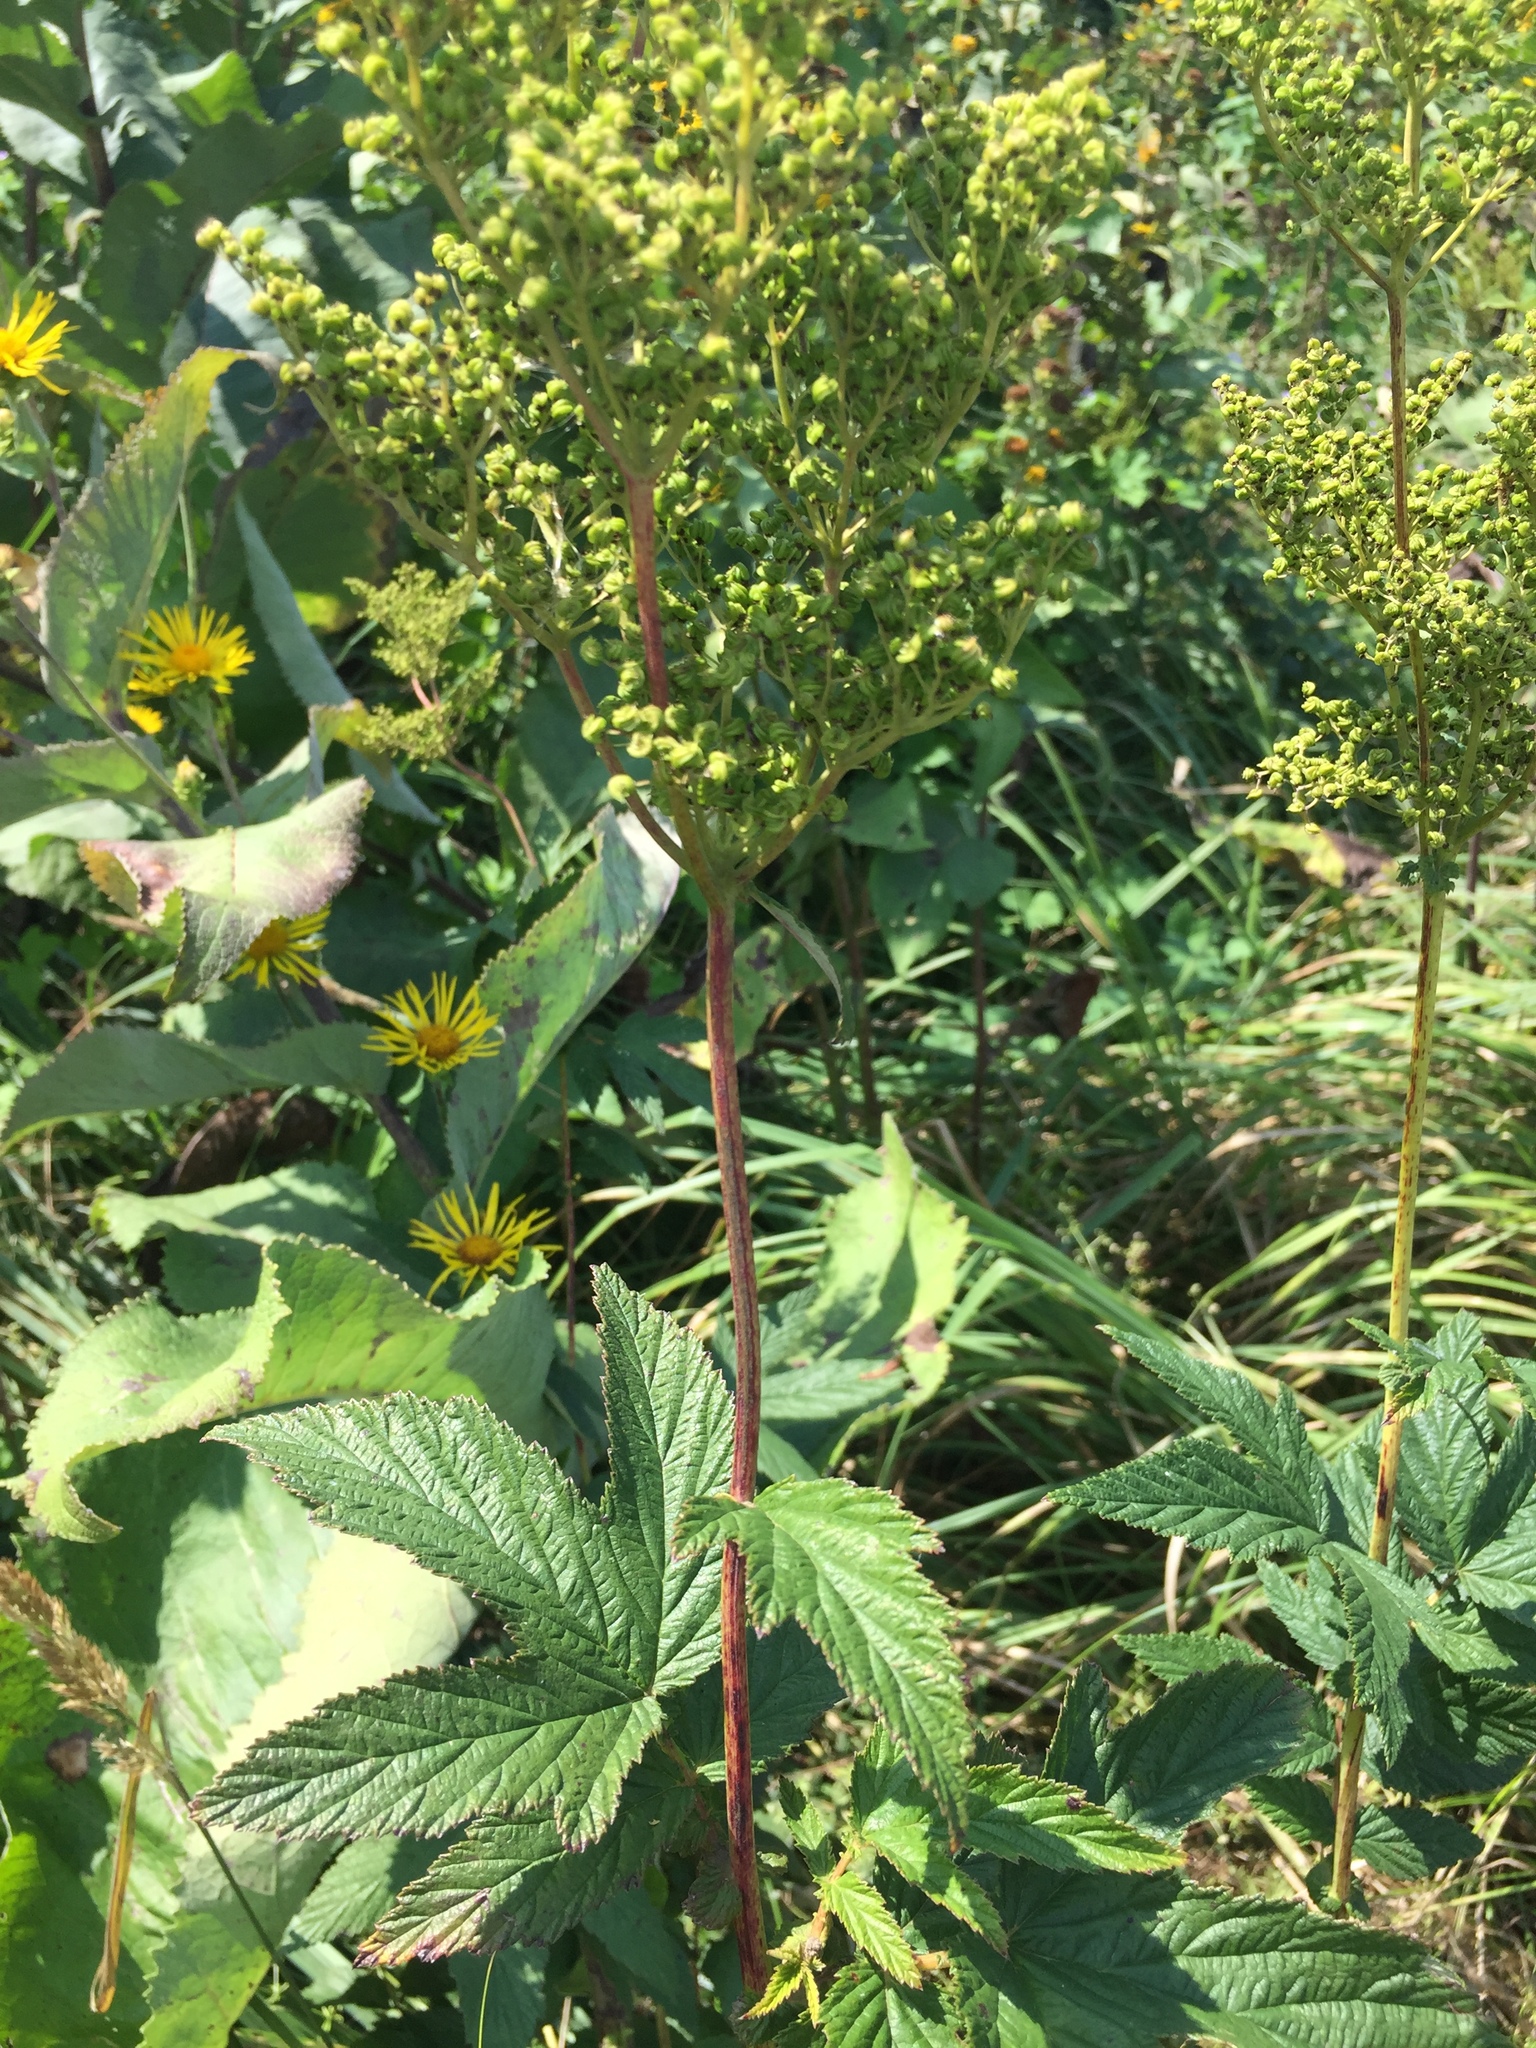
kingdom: Plantae
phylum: Tracheophyta
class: Magnoliopsida
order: Rosales
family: Rosaceae
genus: Filipendula
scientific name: Filipendula ulmaria
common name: Meadowsweet
